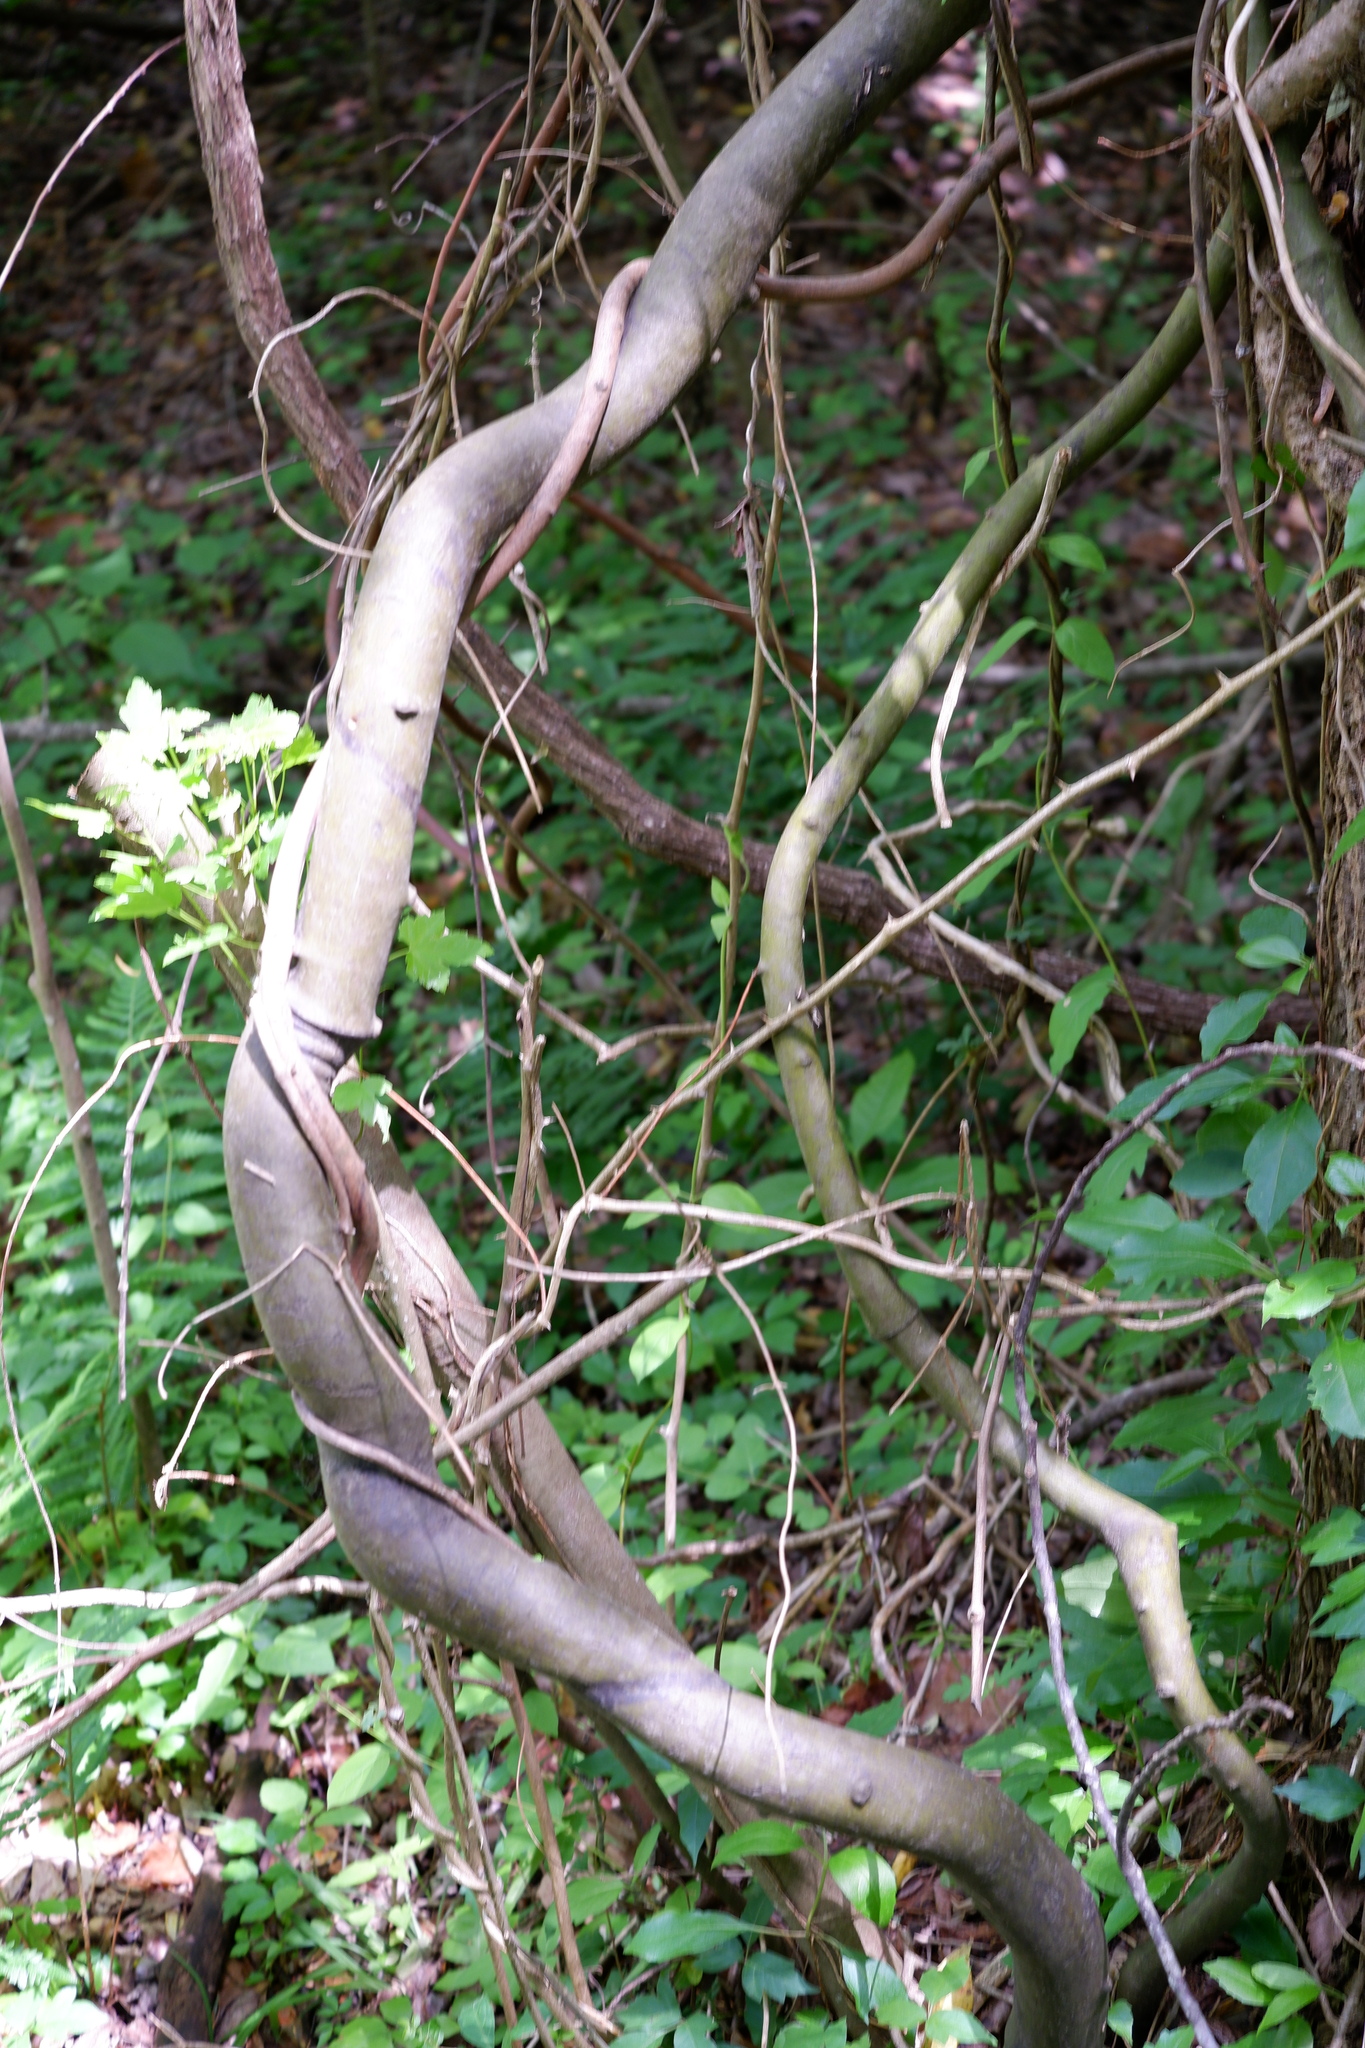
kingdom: Plantae
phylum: Tracheophyta
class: Magnoliopsida
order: Rosales
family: Rhamnaceae
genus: Berchemia
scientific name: Berchemia scandens
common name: Supplejack
